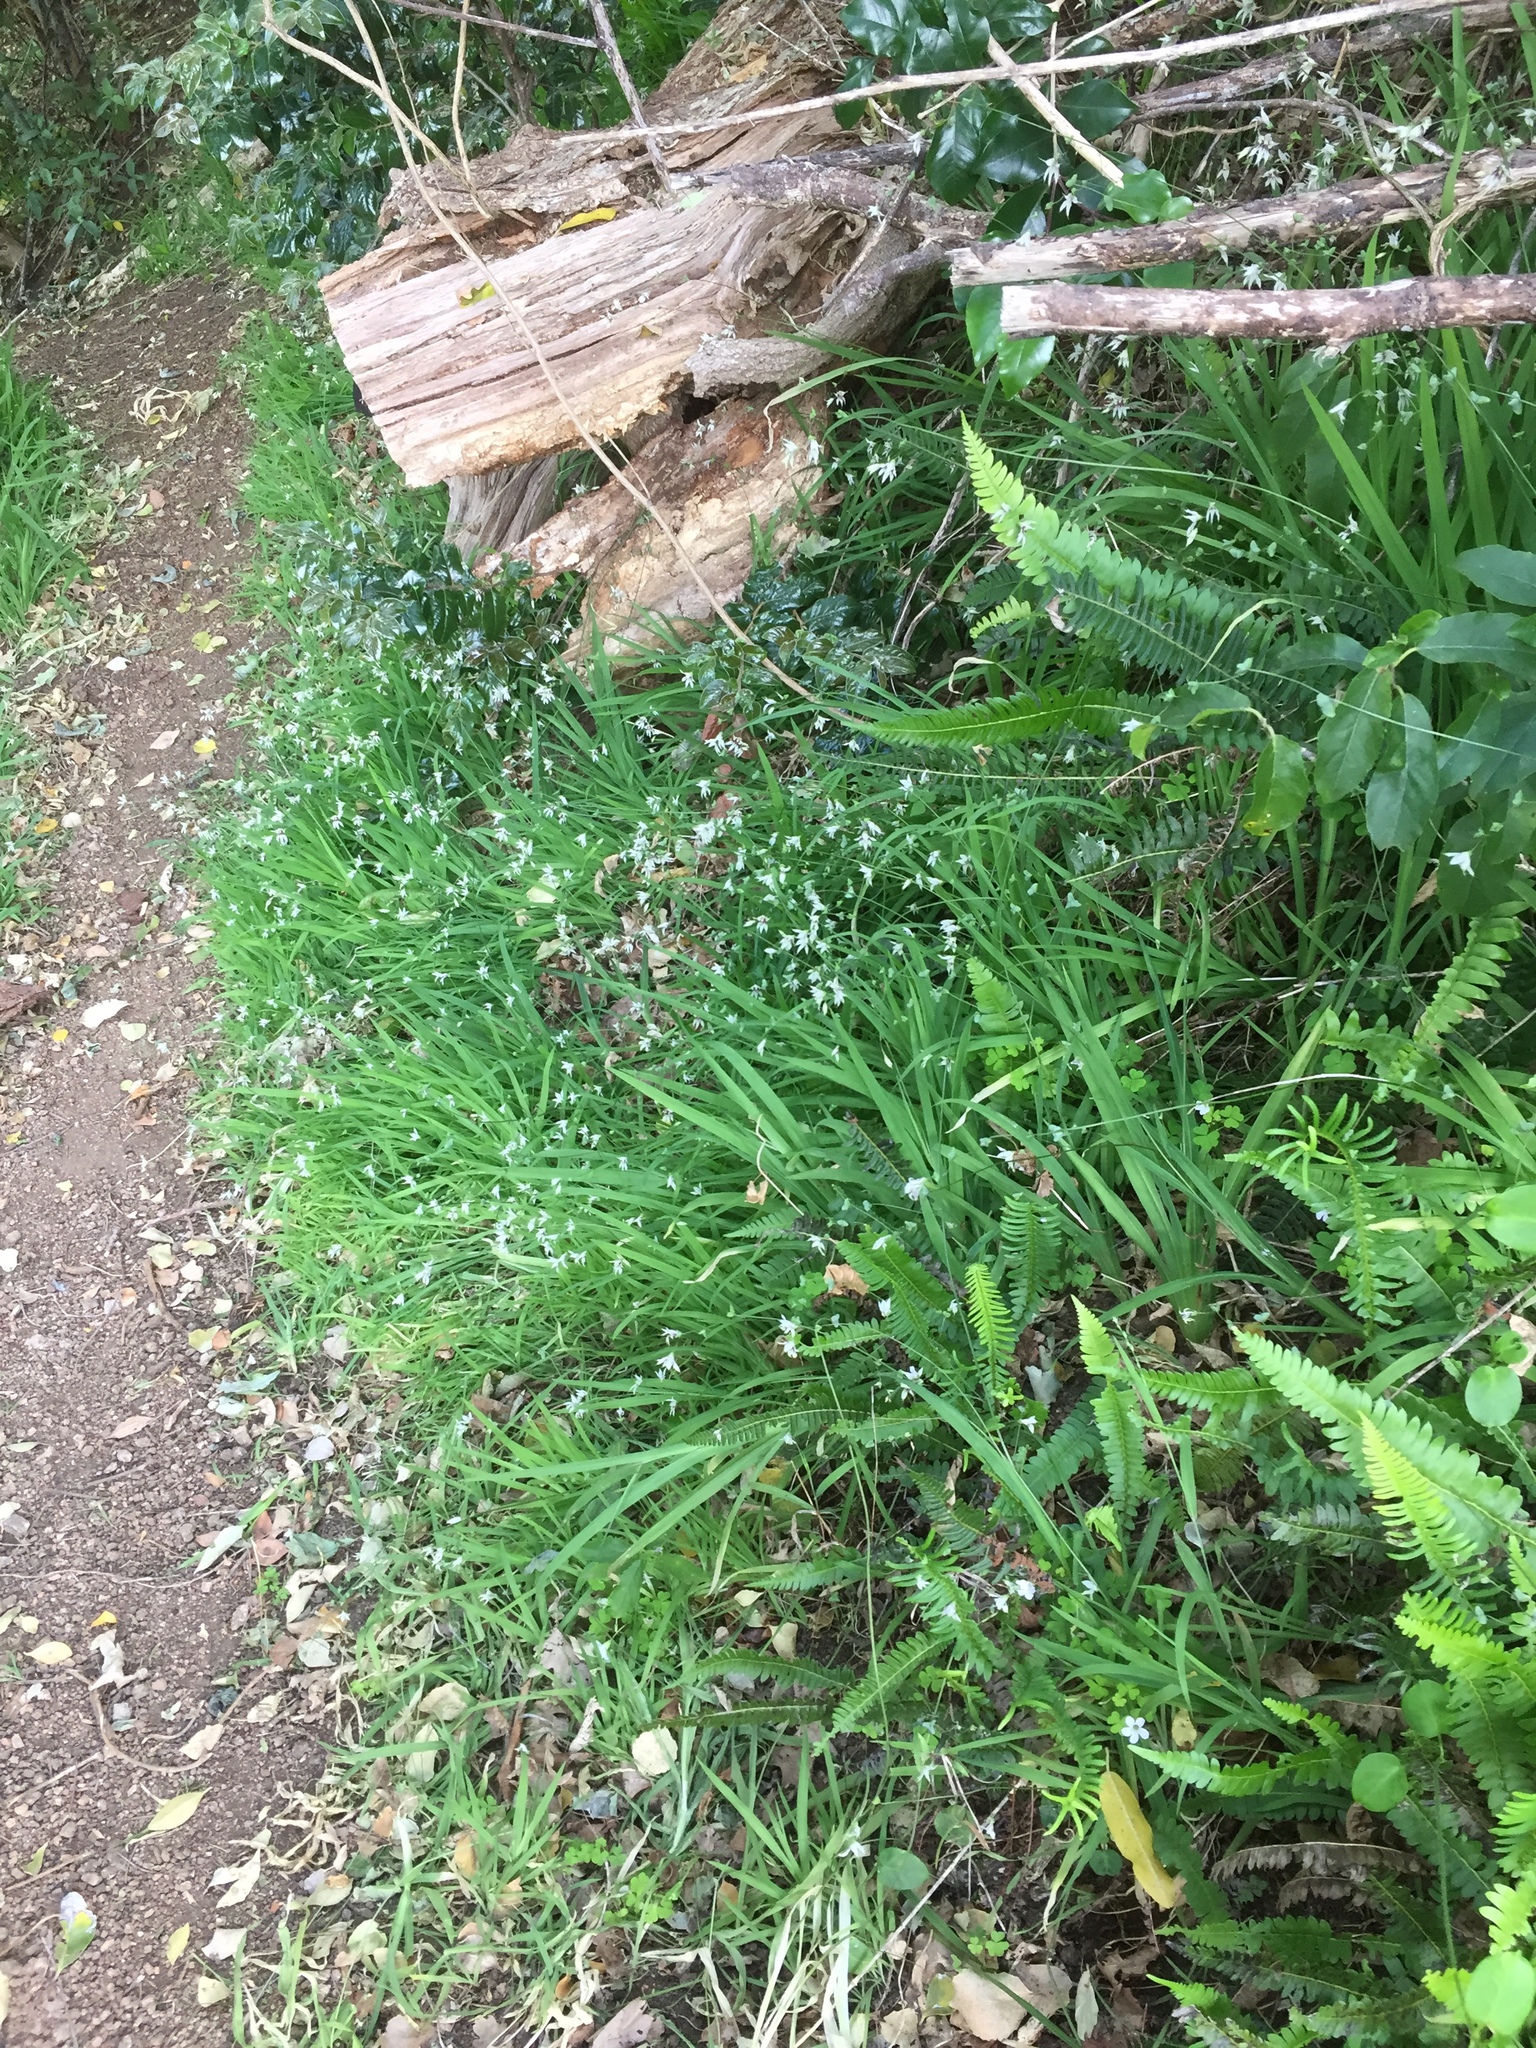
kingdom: Plantae
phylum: Tracheophyta
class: Liliopsida
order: Asparagales
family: Iridaceae
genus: Melasphaerula
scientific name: Melasphaerula graminea
